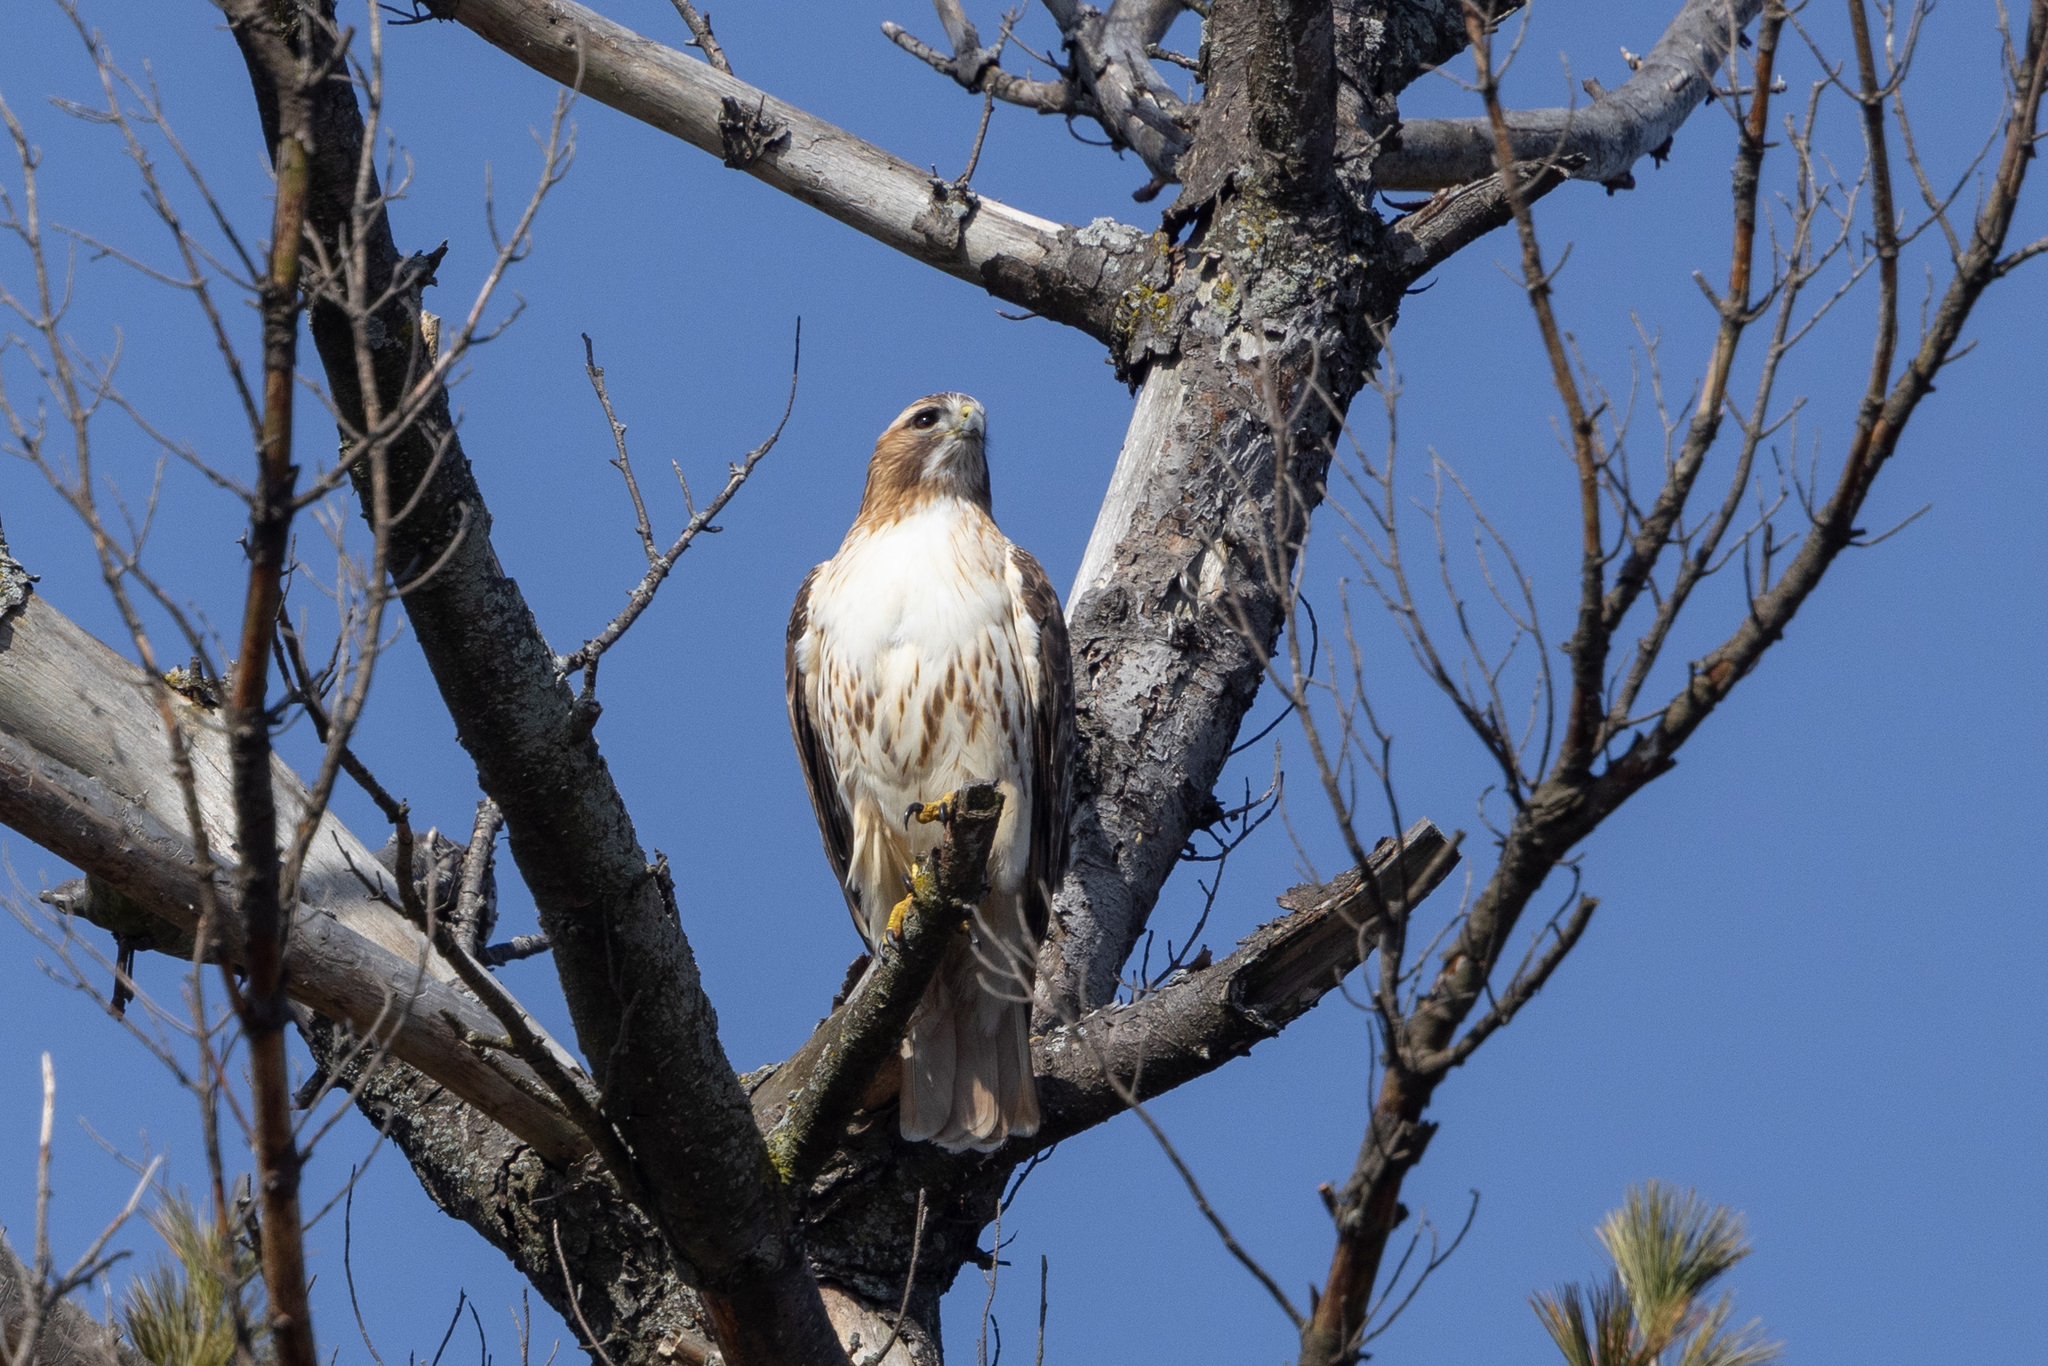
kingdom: Animalia
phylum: Chordata
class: Aves
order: Accipitriformes
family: Accipitridae
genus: Buteo
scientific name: Buteo jamaicensis
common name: Red-tailed hawk
